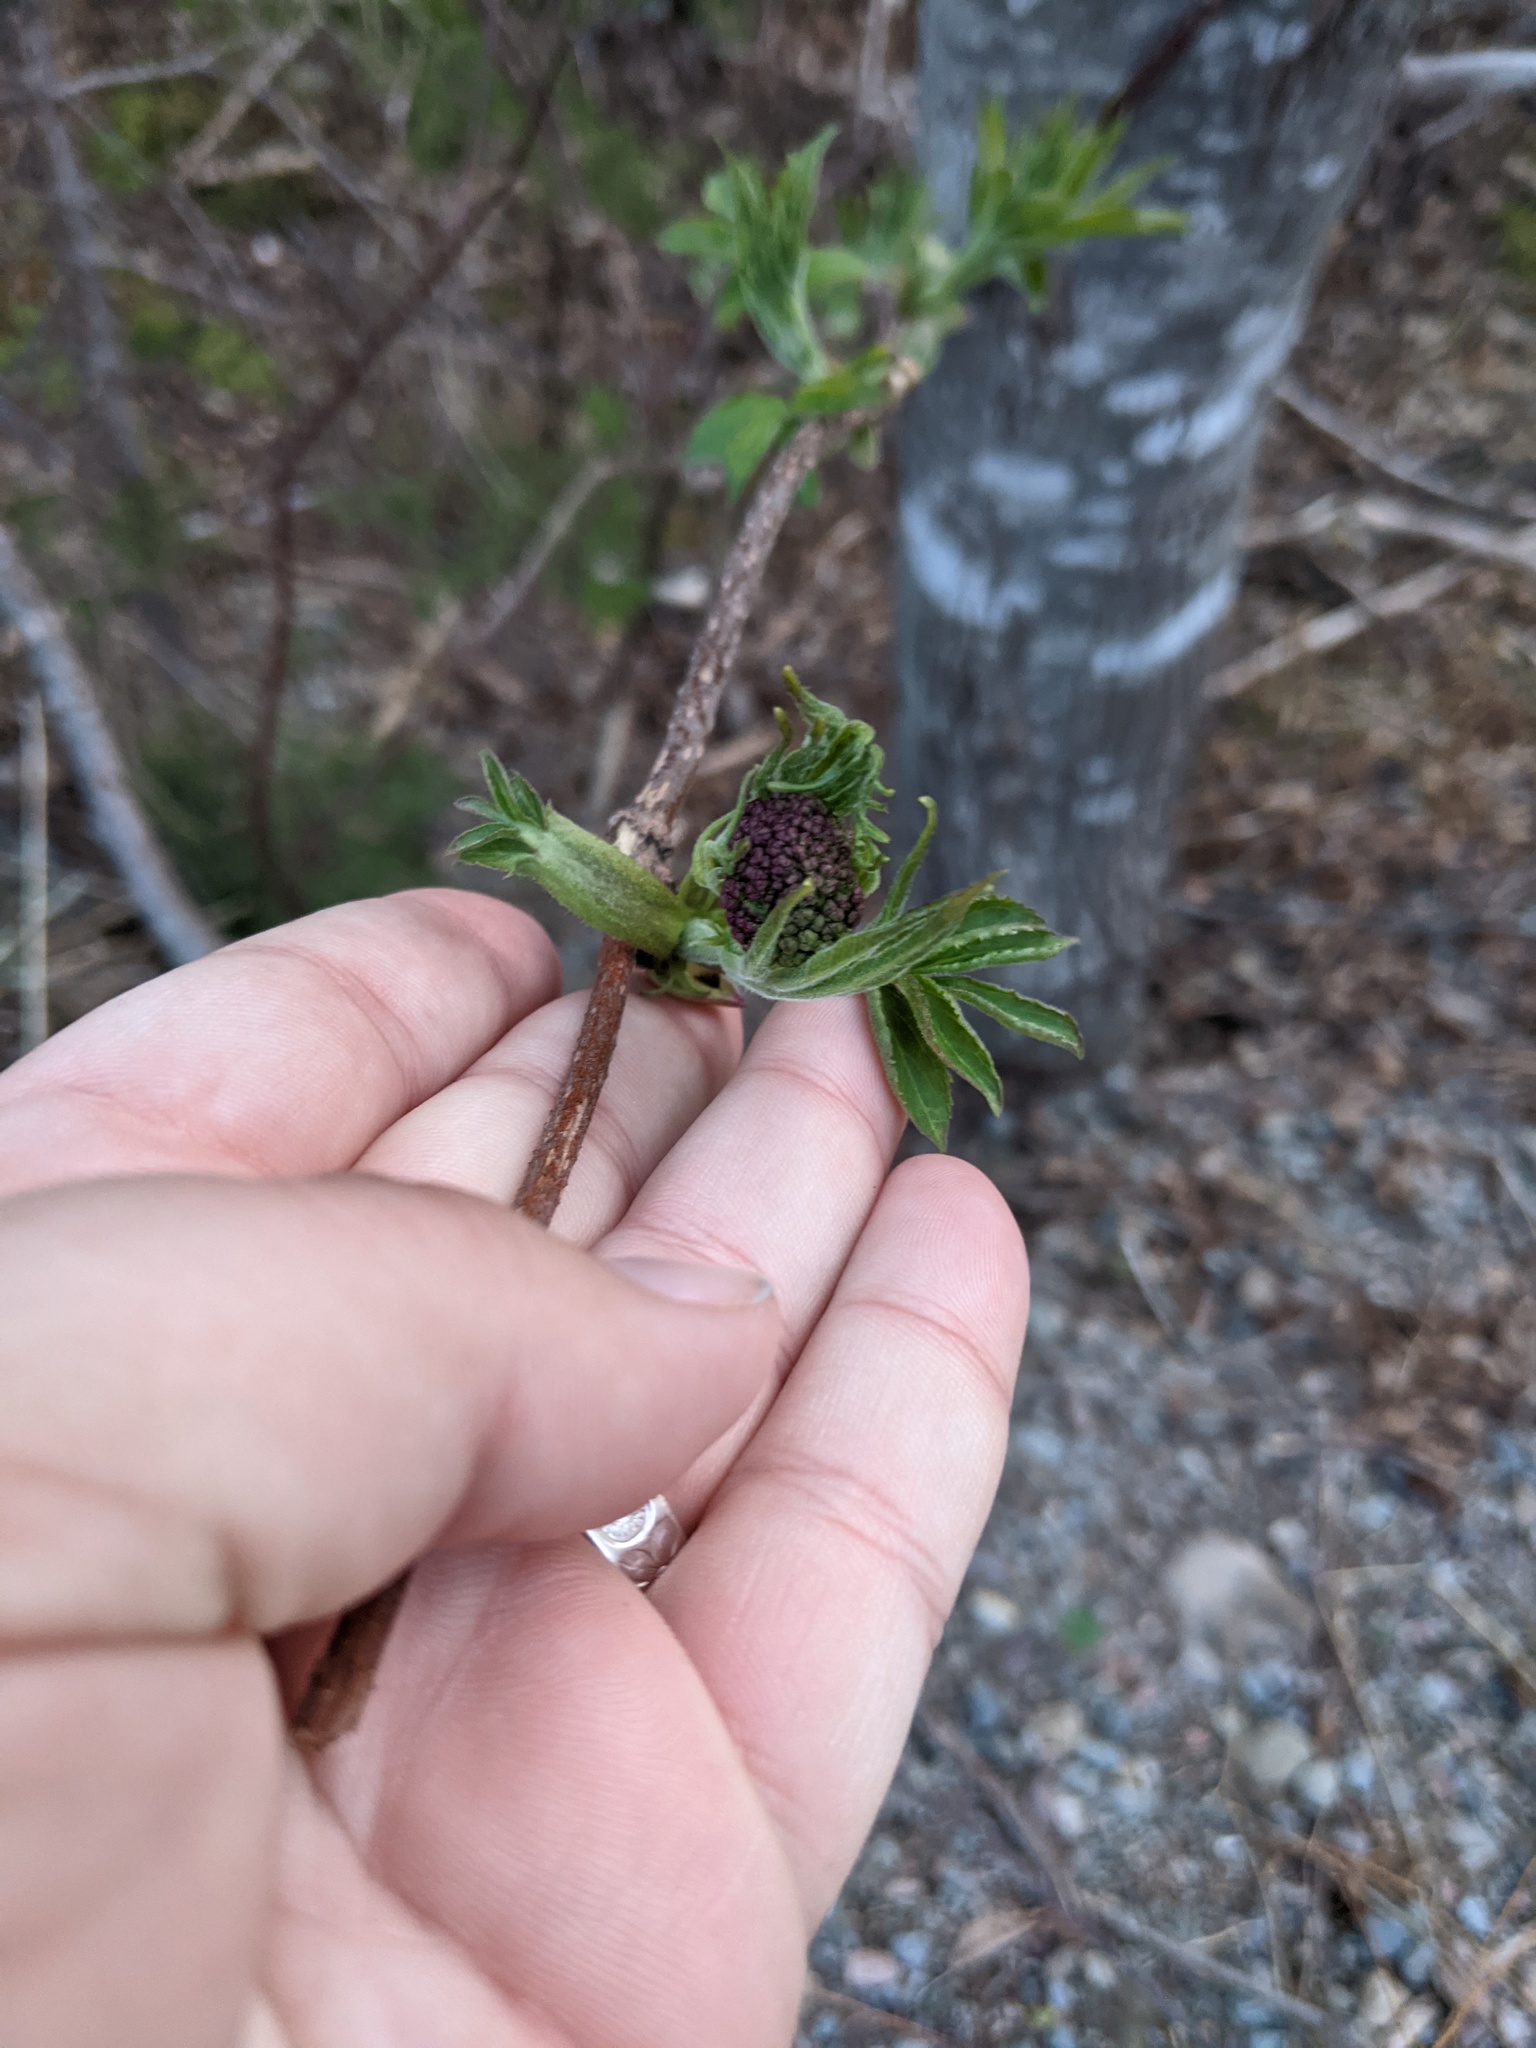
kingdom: Plantae
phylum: Tracheophyta
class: Magnoliopsida
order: Dipsacales
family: Viburnaceae
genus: Sambucus
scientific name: Sambucus racemosa
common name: Red-berried elder
